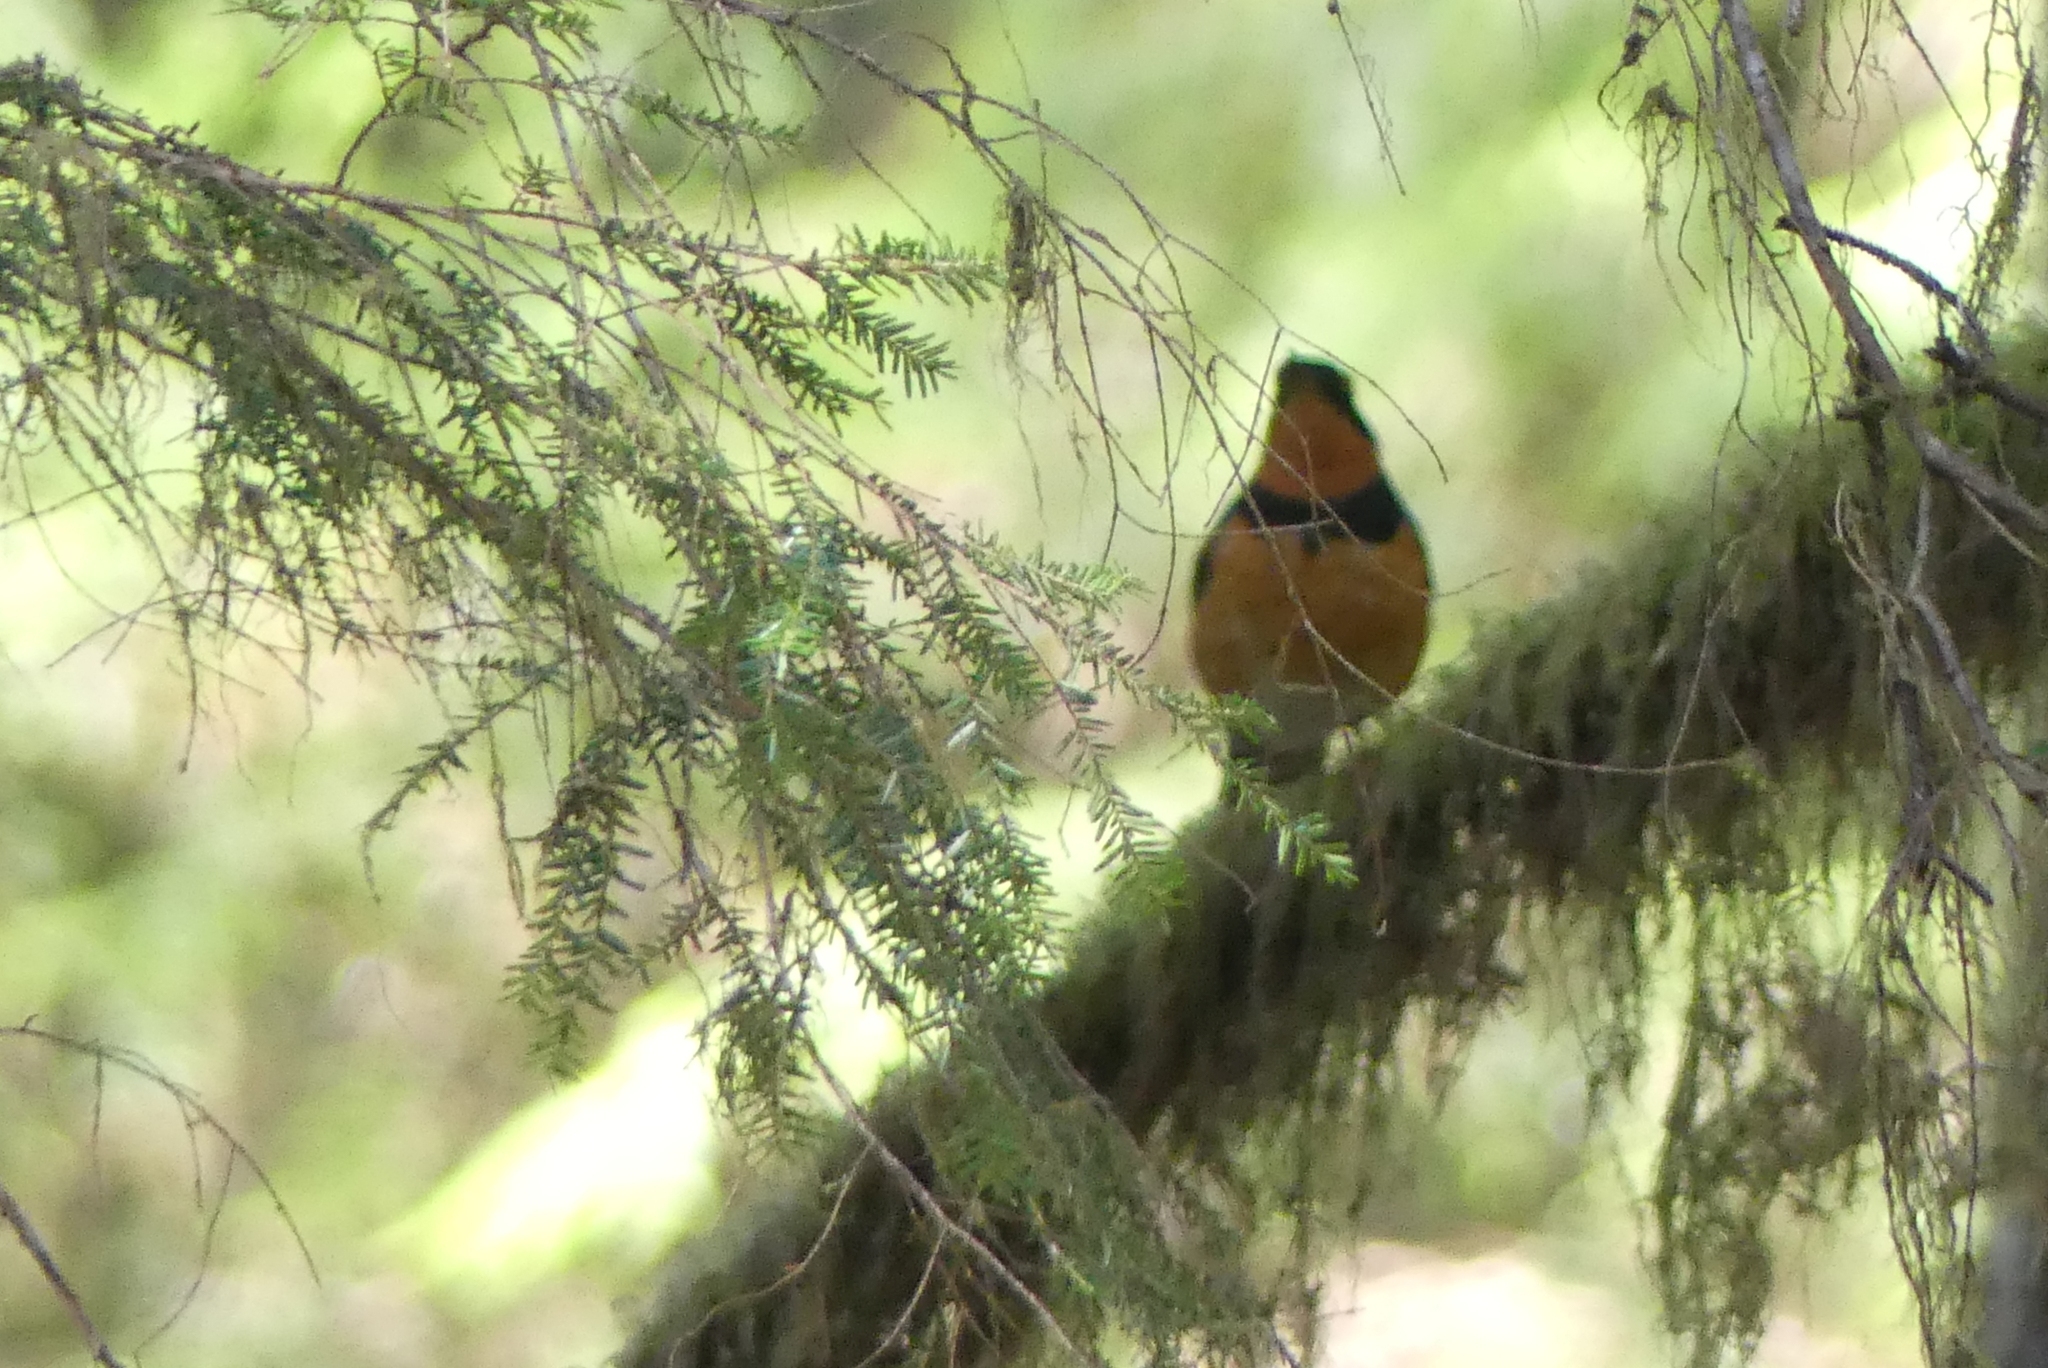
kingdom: Animalia
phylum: Chordata
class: Aves
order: Passeriformes
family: Turdidae
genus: Ixoreus
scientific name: Ixoreus naevius
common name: Varied thrush
